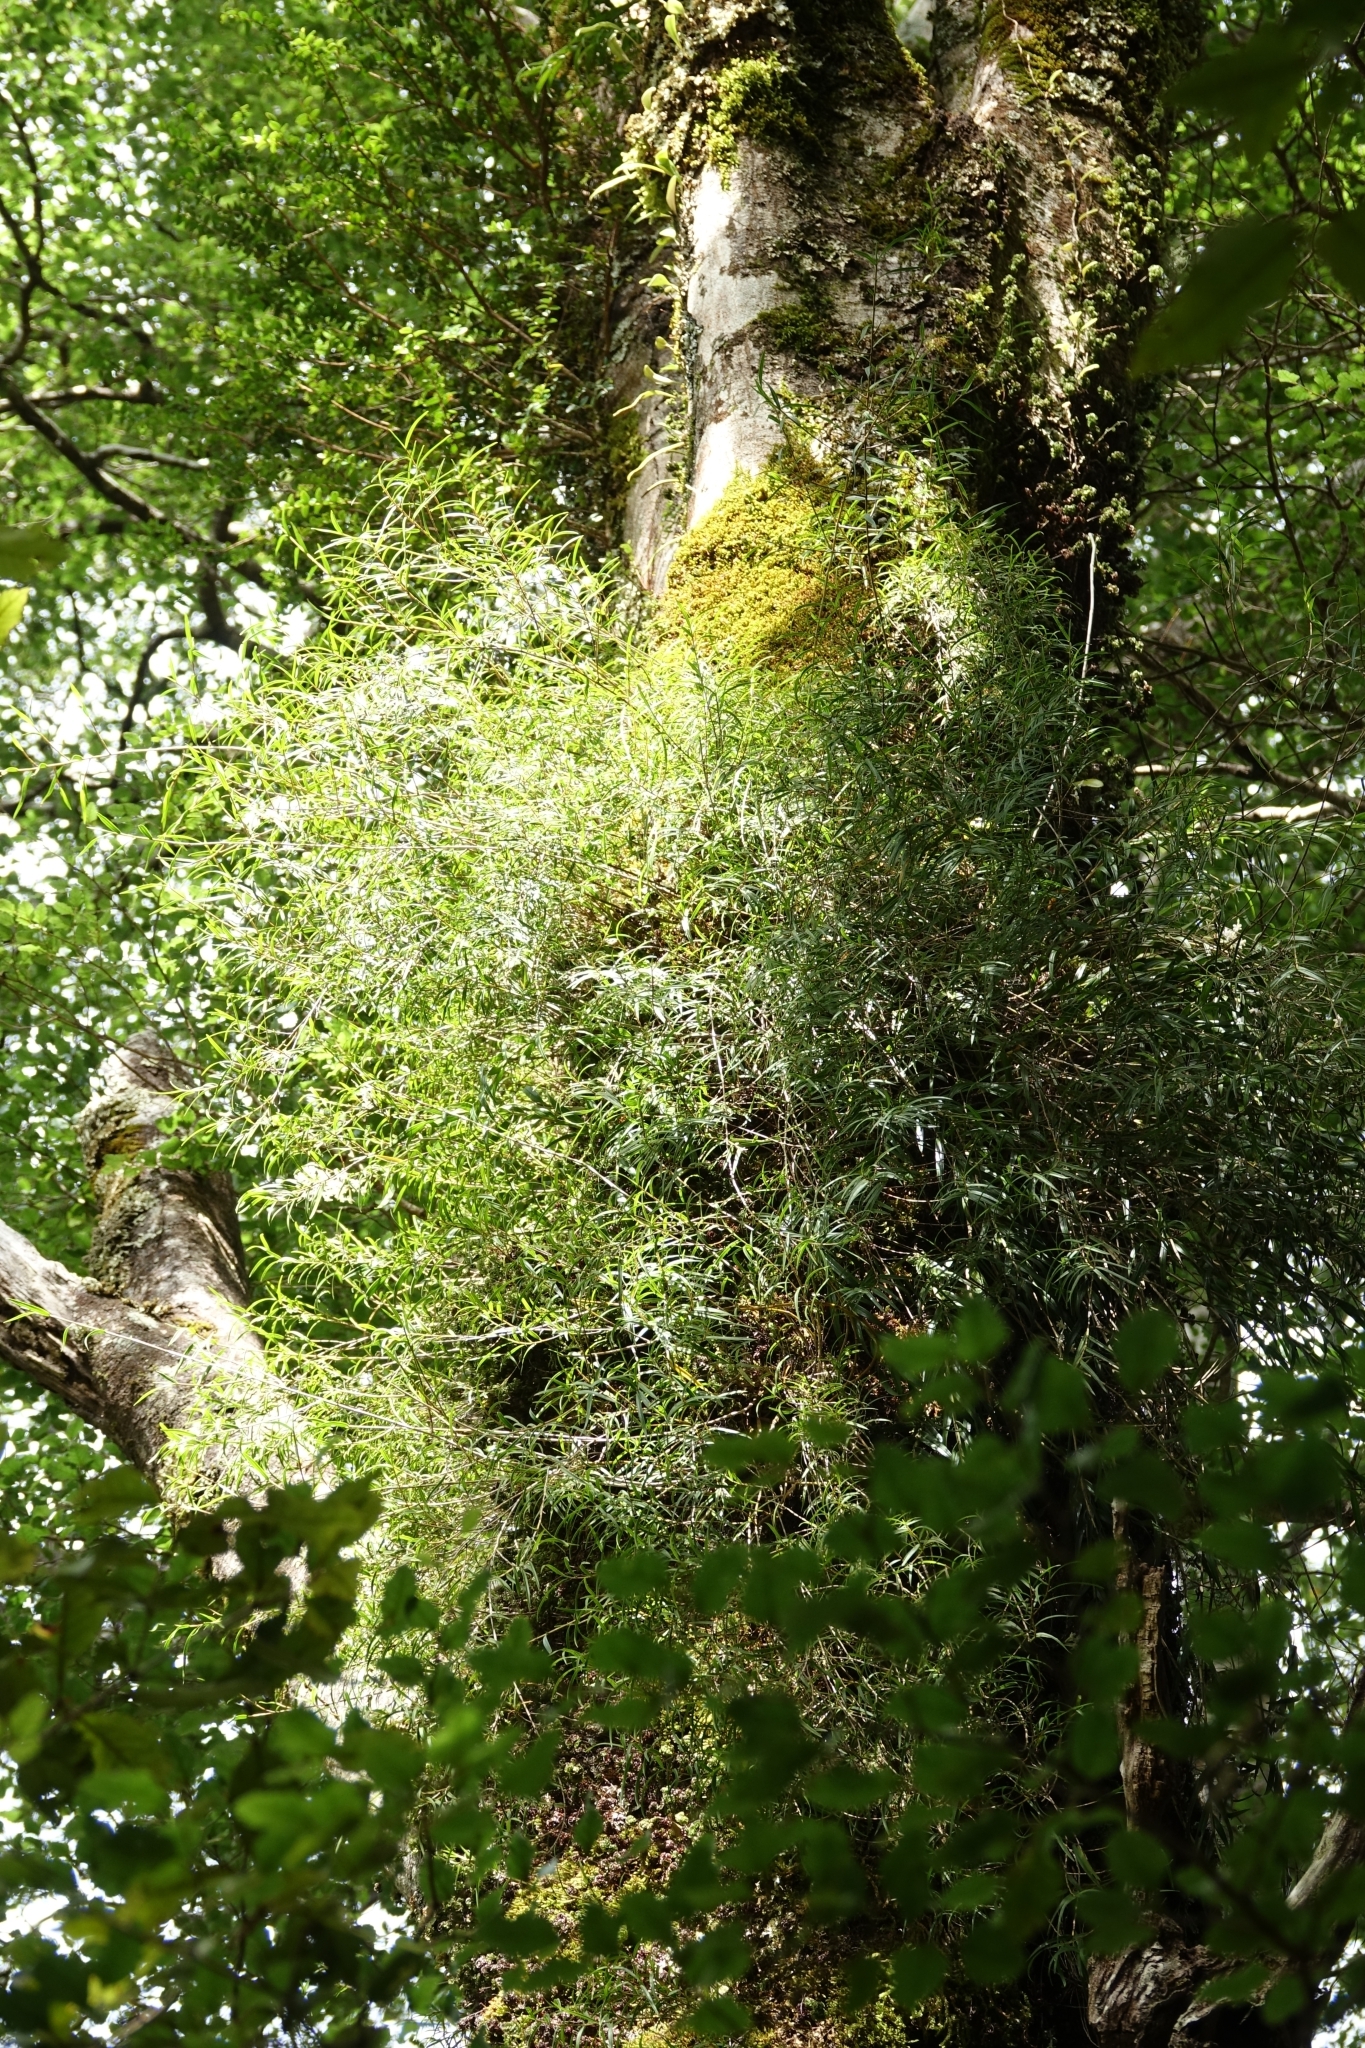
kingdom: Plantae
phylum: Tracheophyta
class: Liliopsida
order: Asparagales
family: Orchidaceae
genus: Dendrobium
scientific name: Dendrobium cunninghamii
